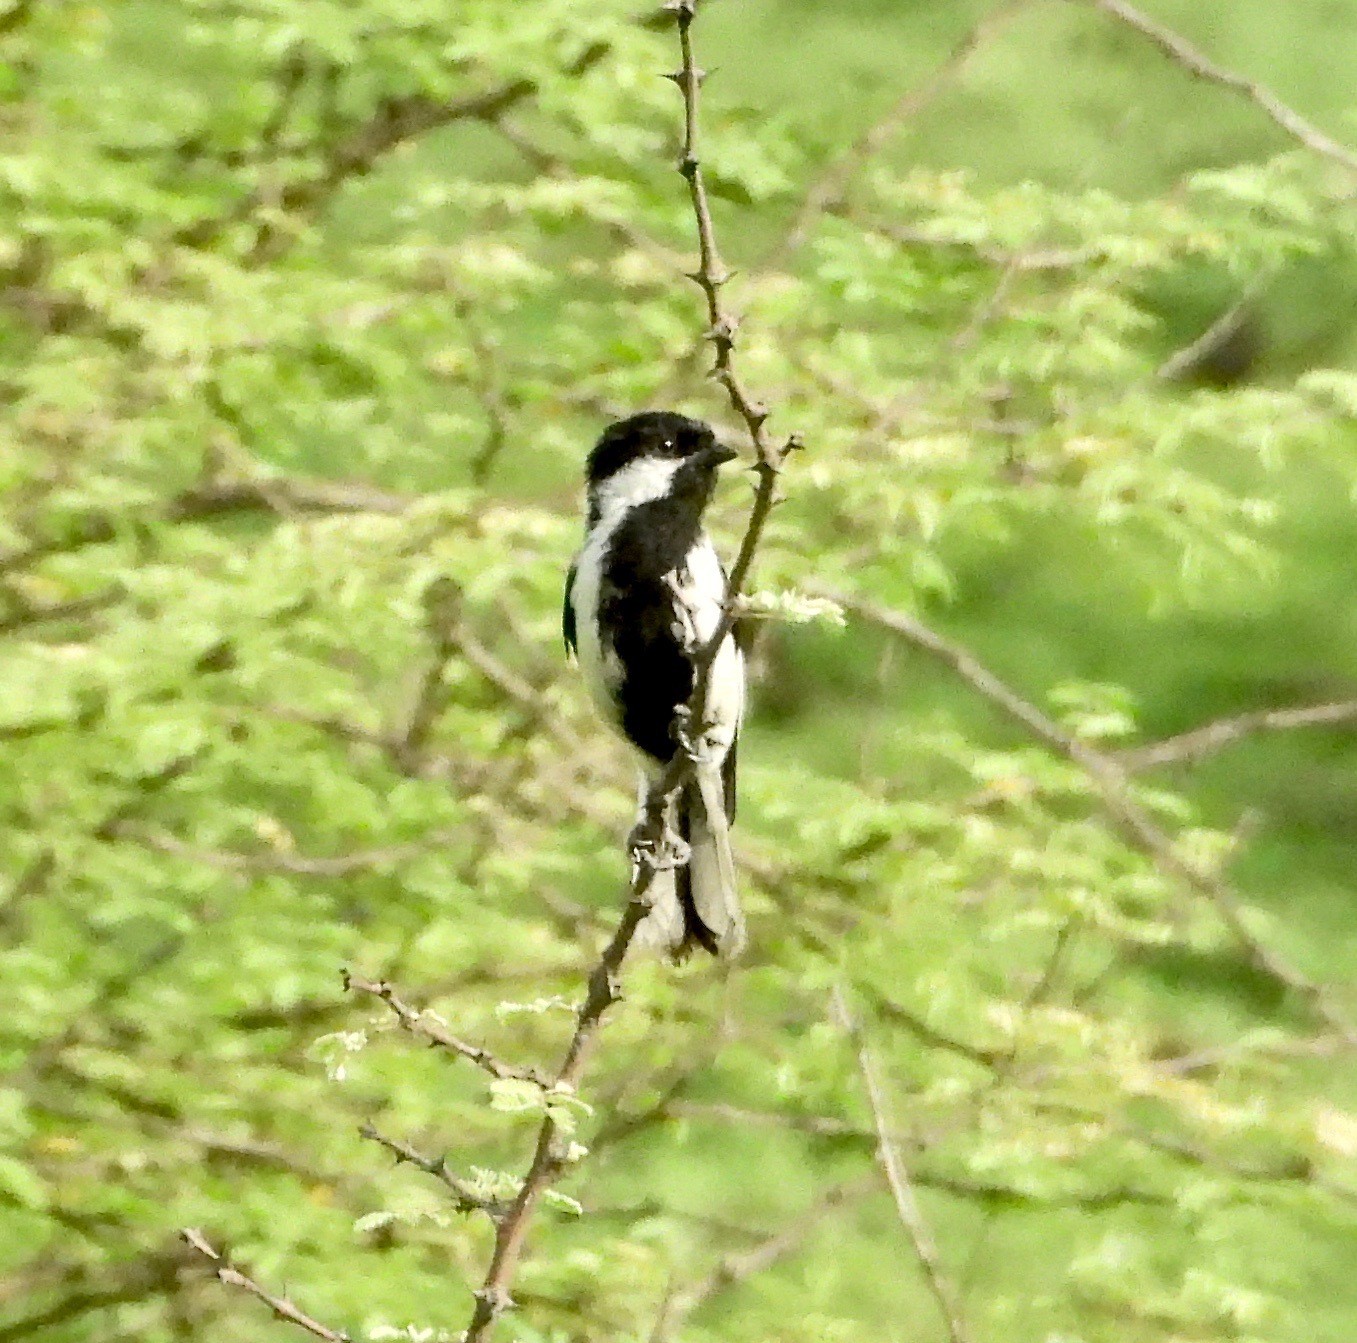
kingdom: Animalia
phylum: Chordata
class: Aves
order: Passeriformes
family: Paridae
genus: Parus
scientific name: Parus nuchalis
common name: White-naped tit
